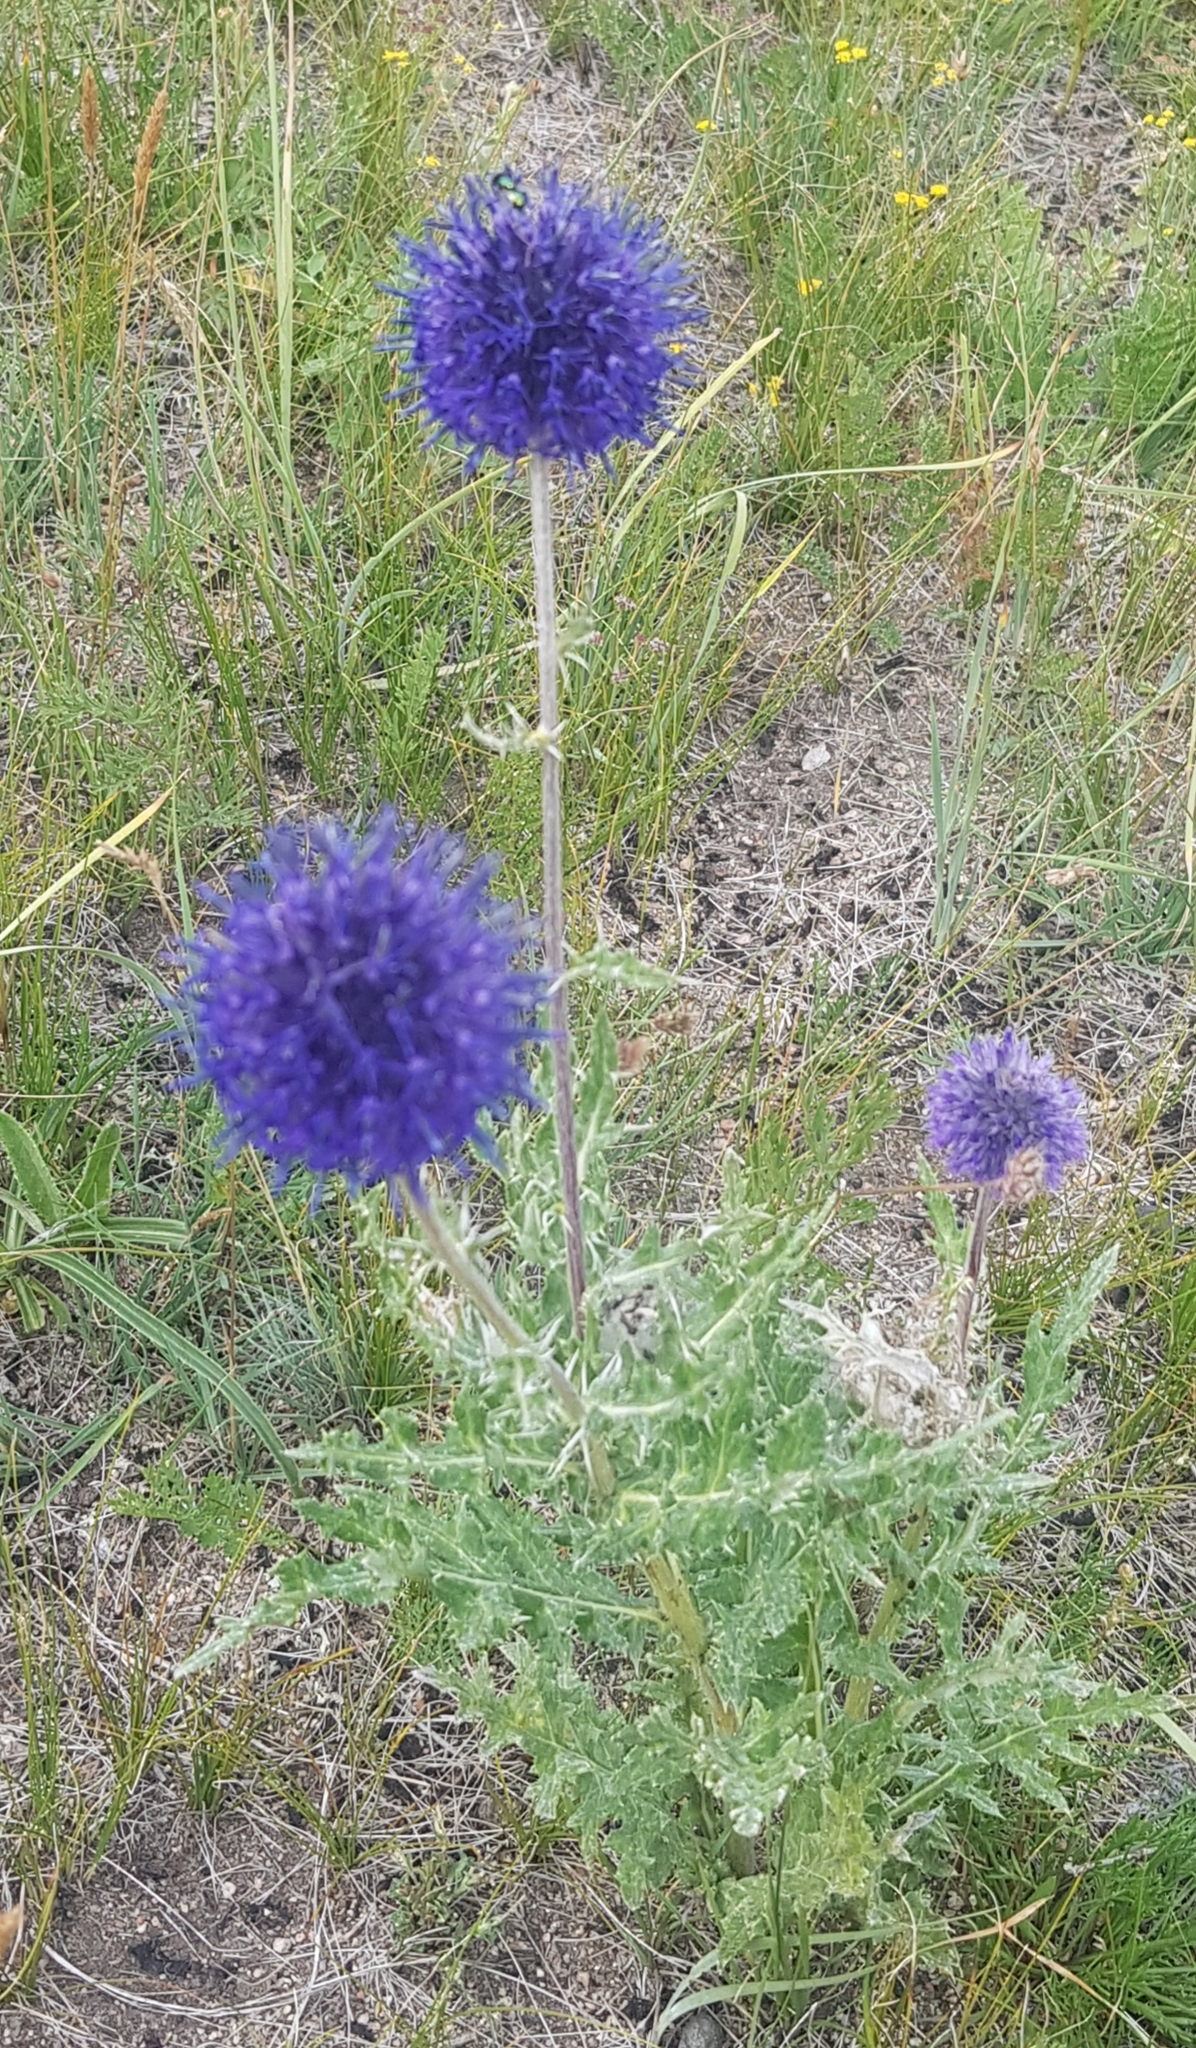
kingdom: Plantae
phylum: Tracheophyta
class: Magnoliopsida
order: Asterales
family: Asteraceae
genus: Echinops
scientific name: Echinops davuricus
